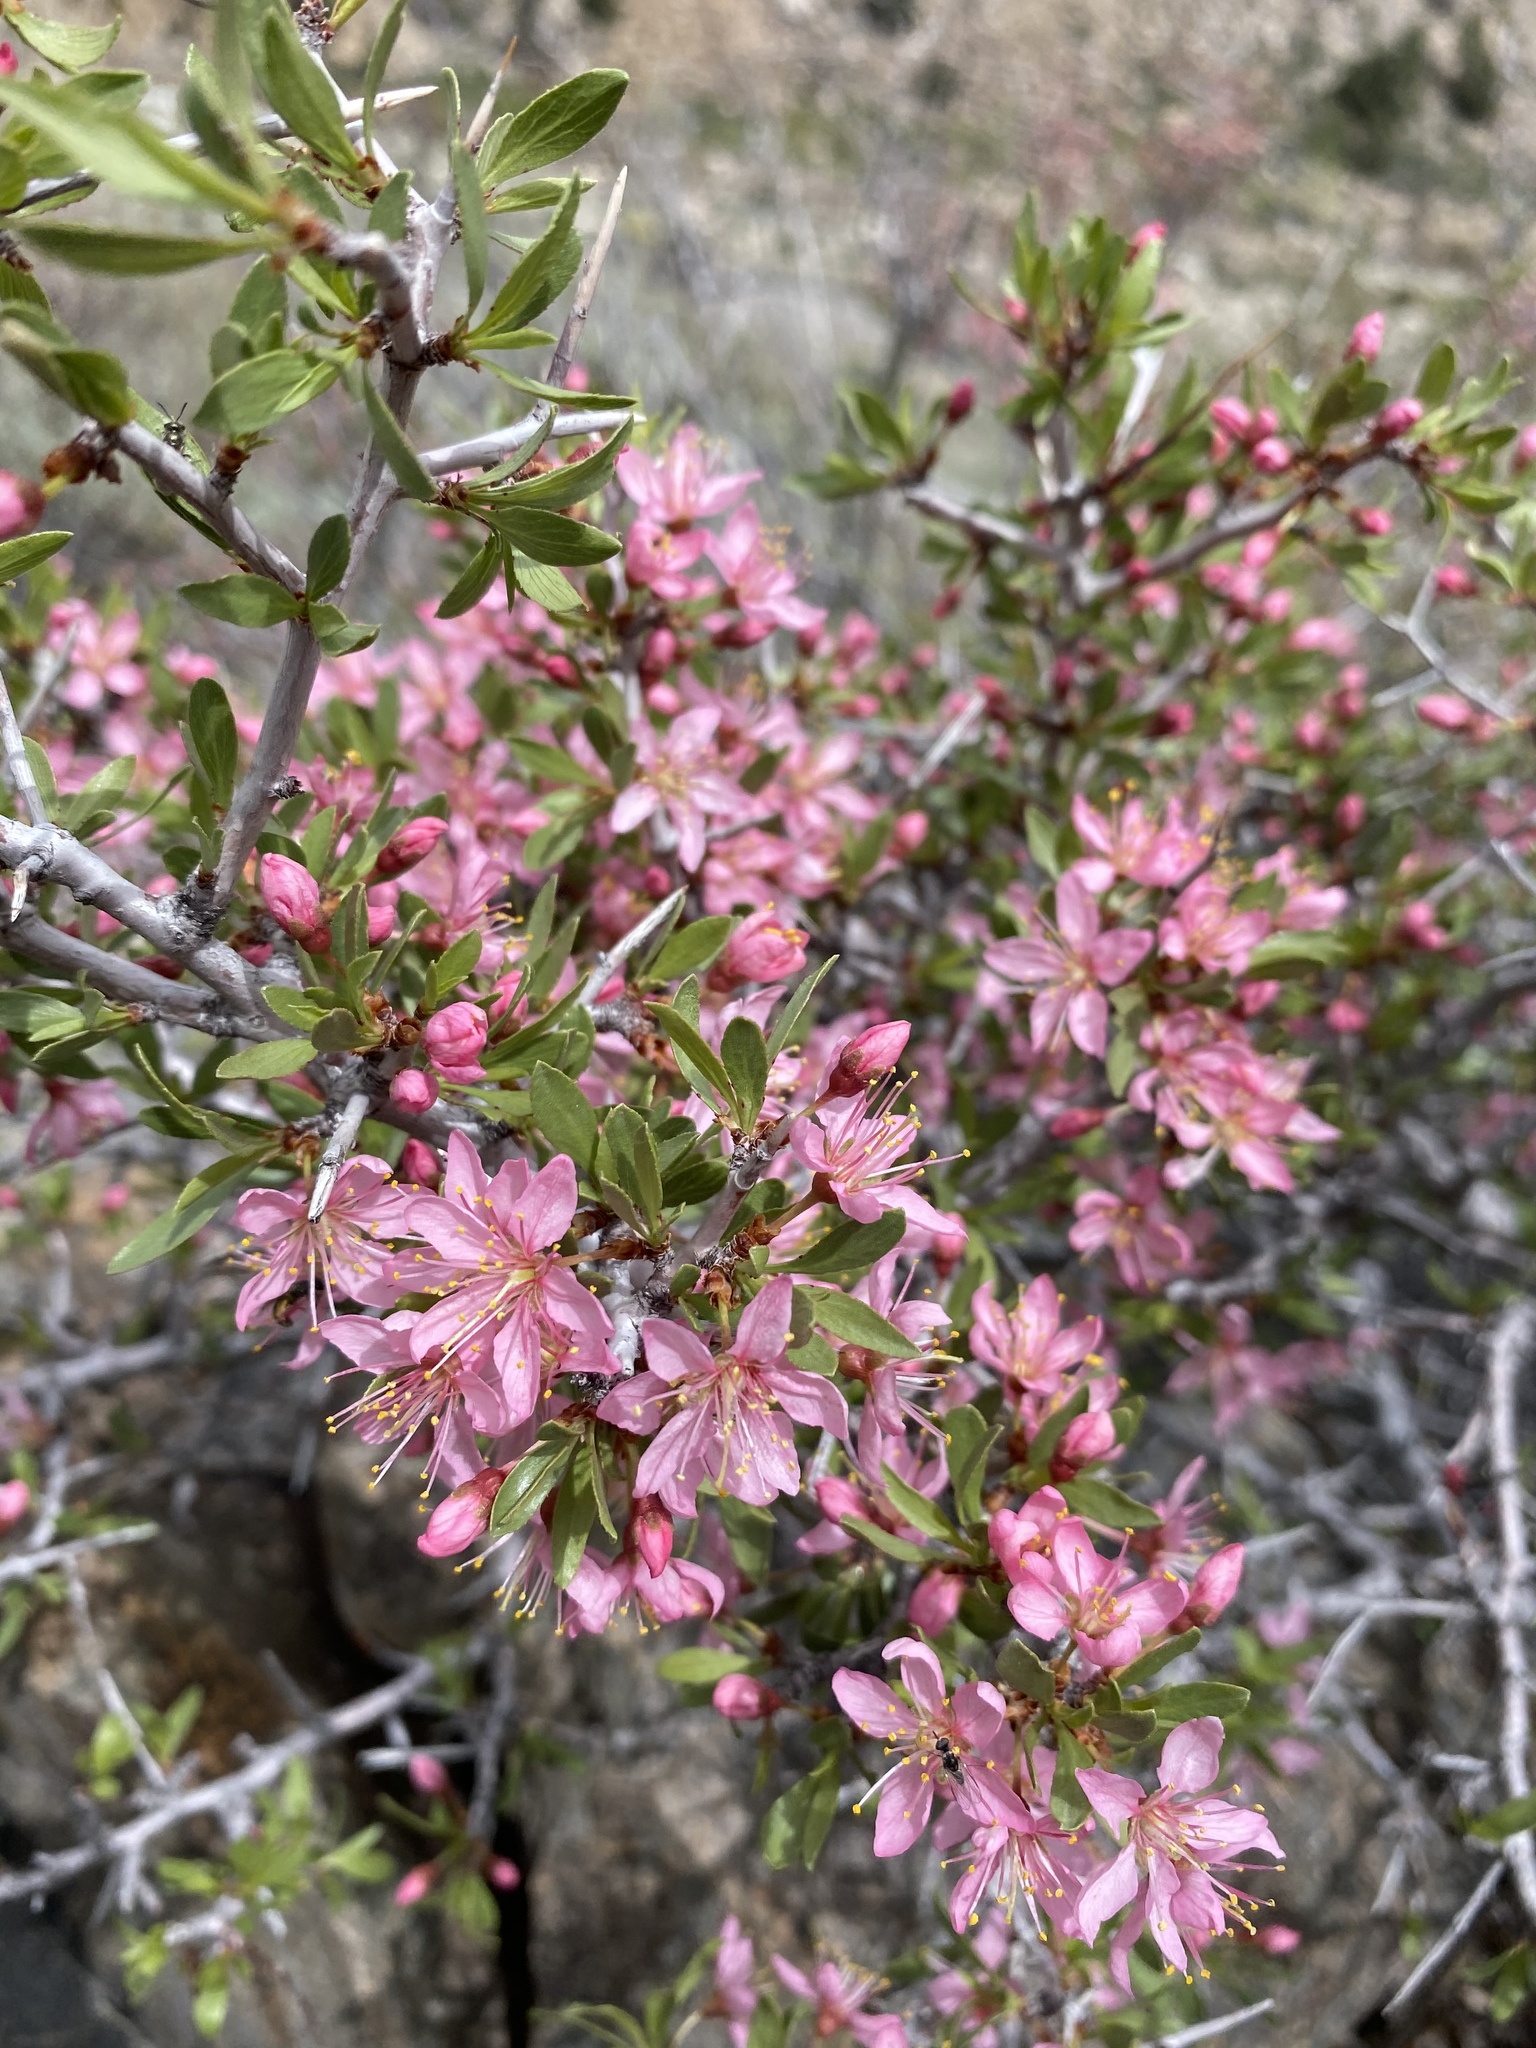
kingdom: Plantae
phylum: Tracheophyta
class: Magnoliopsida
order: Rosales
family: Rosaceae
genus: Prunus
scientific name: Prunus andersonii
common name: Desert peach
